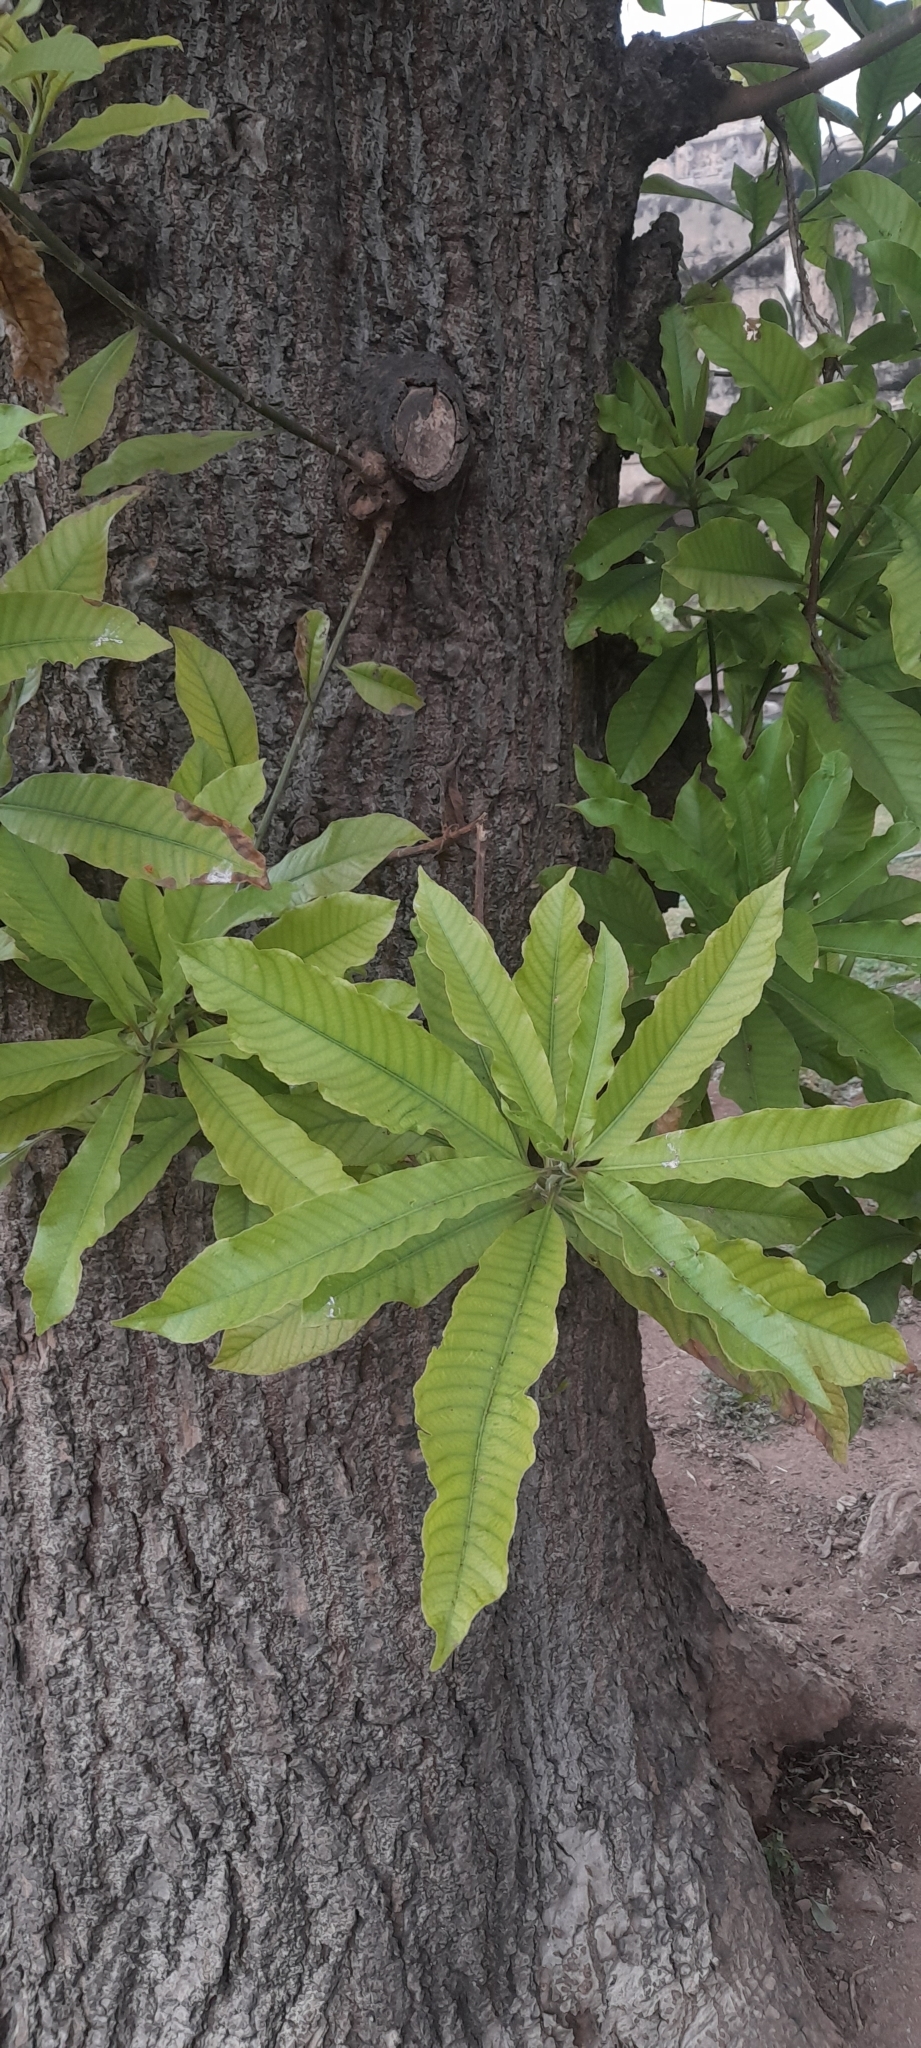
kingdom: Plantae
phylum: Tracheophyta
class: Magnoliopsida
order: Ericales
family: Lecythidaceae
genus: Couroupita
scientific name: Couroupita guianensis
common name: Cannonball tree
